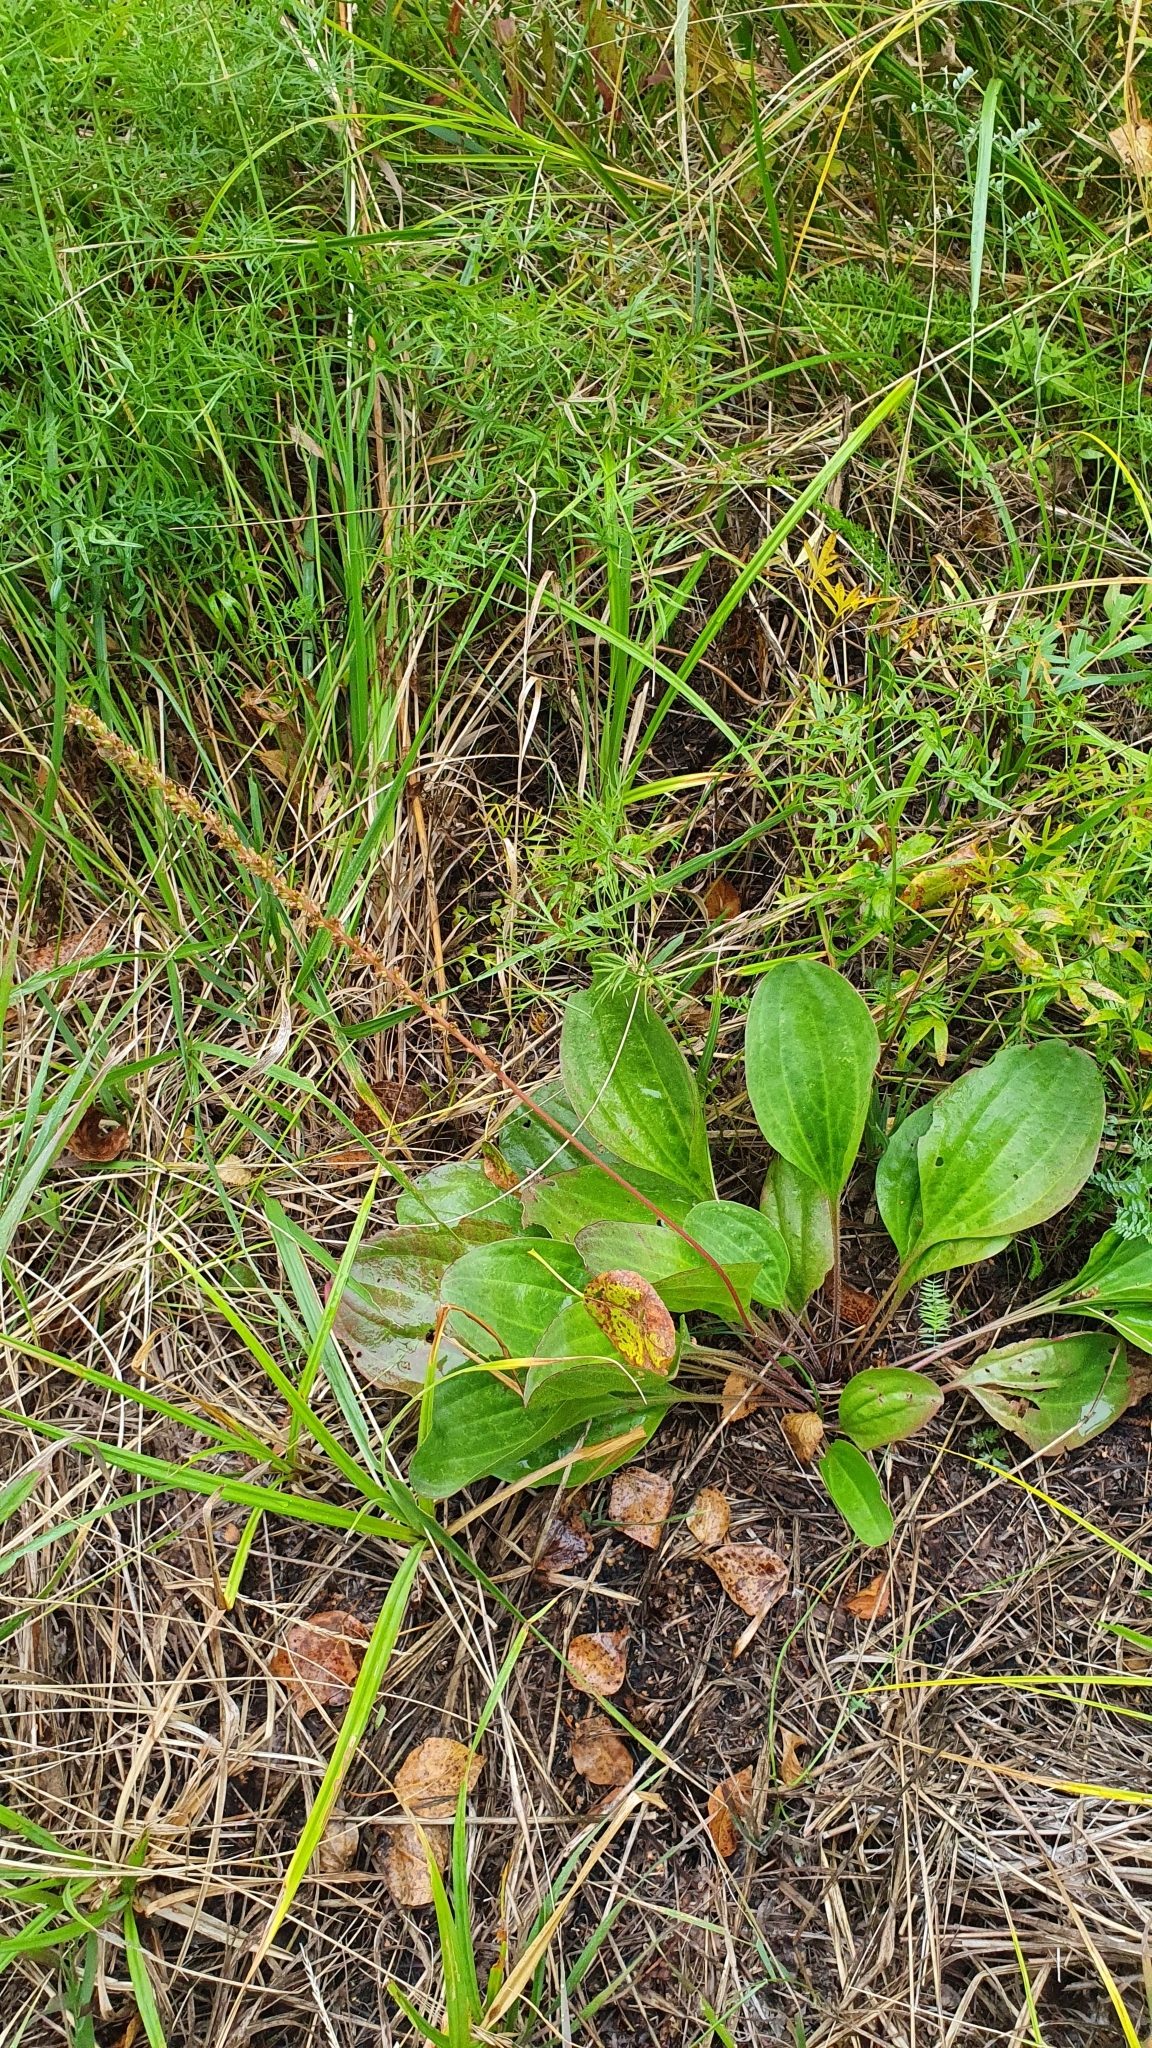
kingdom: Plantae
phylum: Tracheophyta
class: Magnoliopsida
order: Lamiales
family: Plantaginaceae
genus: Plantago
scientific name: Plantago cornuti
